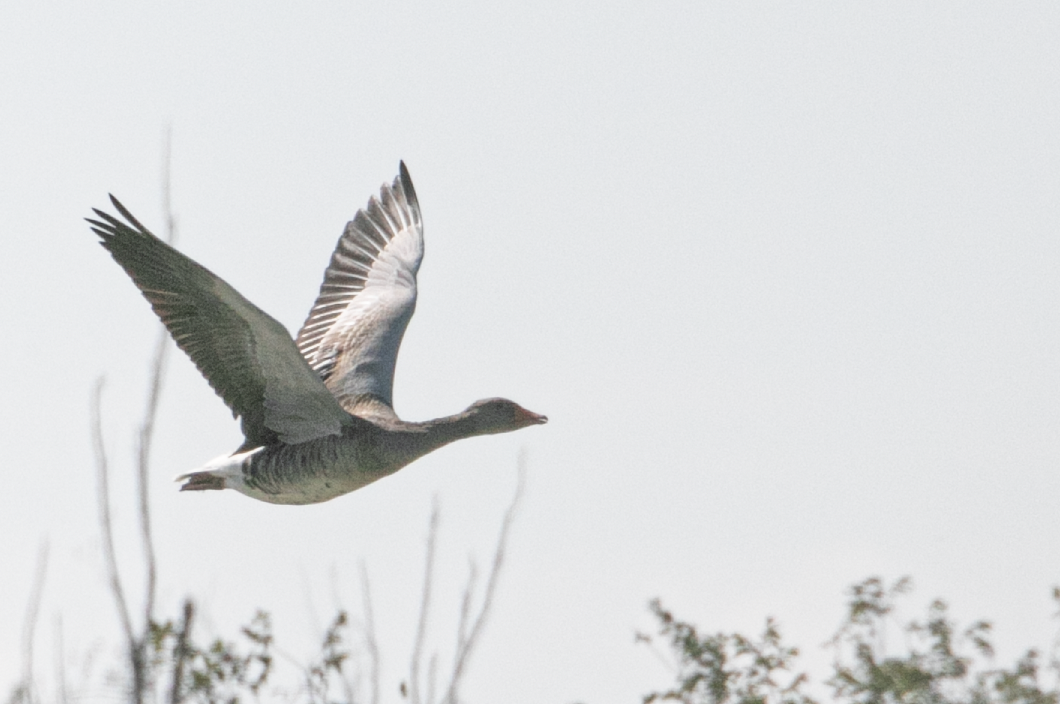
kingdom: Animalia
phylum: Chordata
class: Aves
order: Anseriformes
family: Anatidae
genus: Anser
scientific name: Anser anser
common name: Greylag goose
